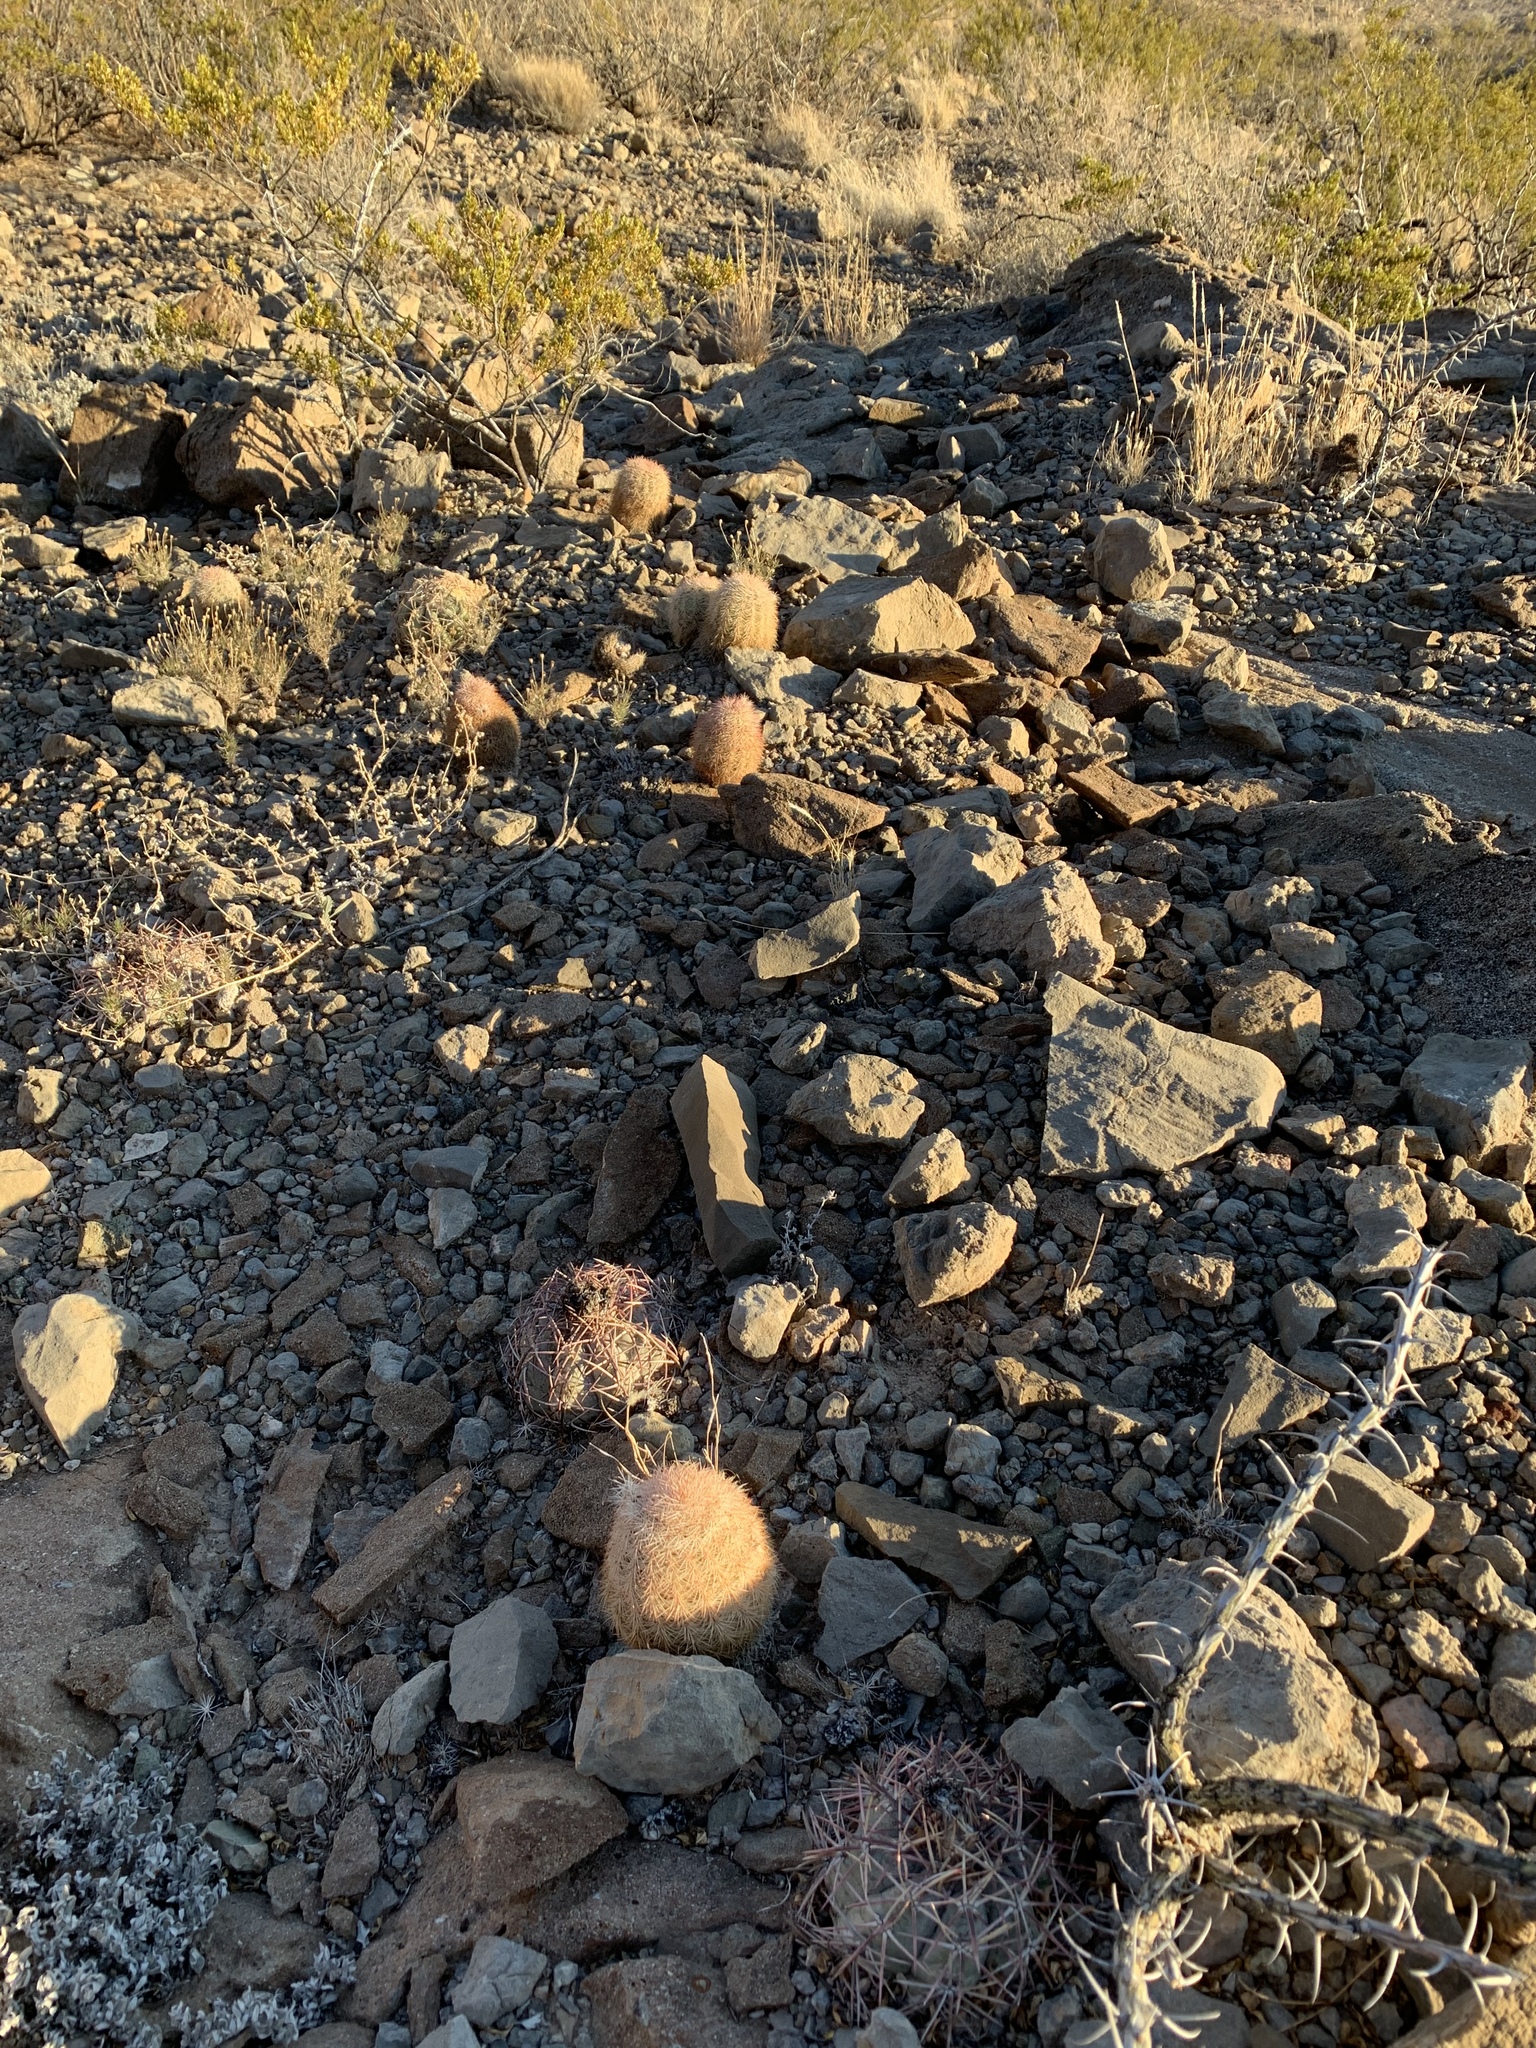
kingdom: Plantae
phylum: Tracheophyta
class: Magnoliopsida
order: Caryophyllales
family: Cactaceae
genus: Echinocereus
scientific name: Echinocereus dasyacanthus
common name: Spiny hedgehog cactus
